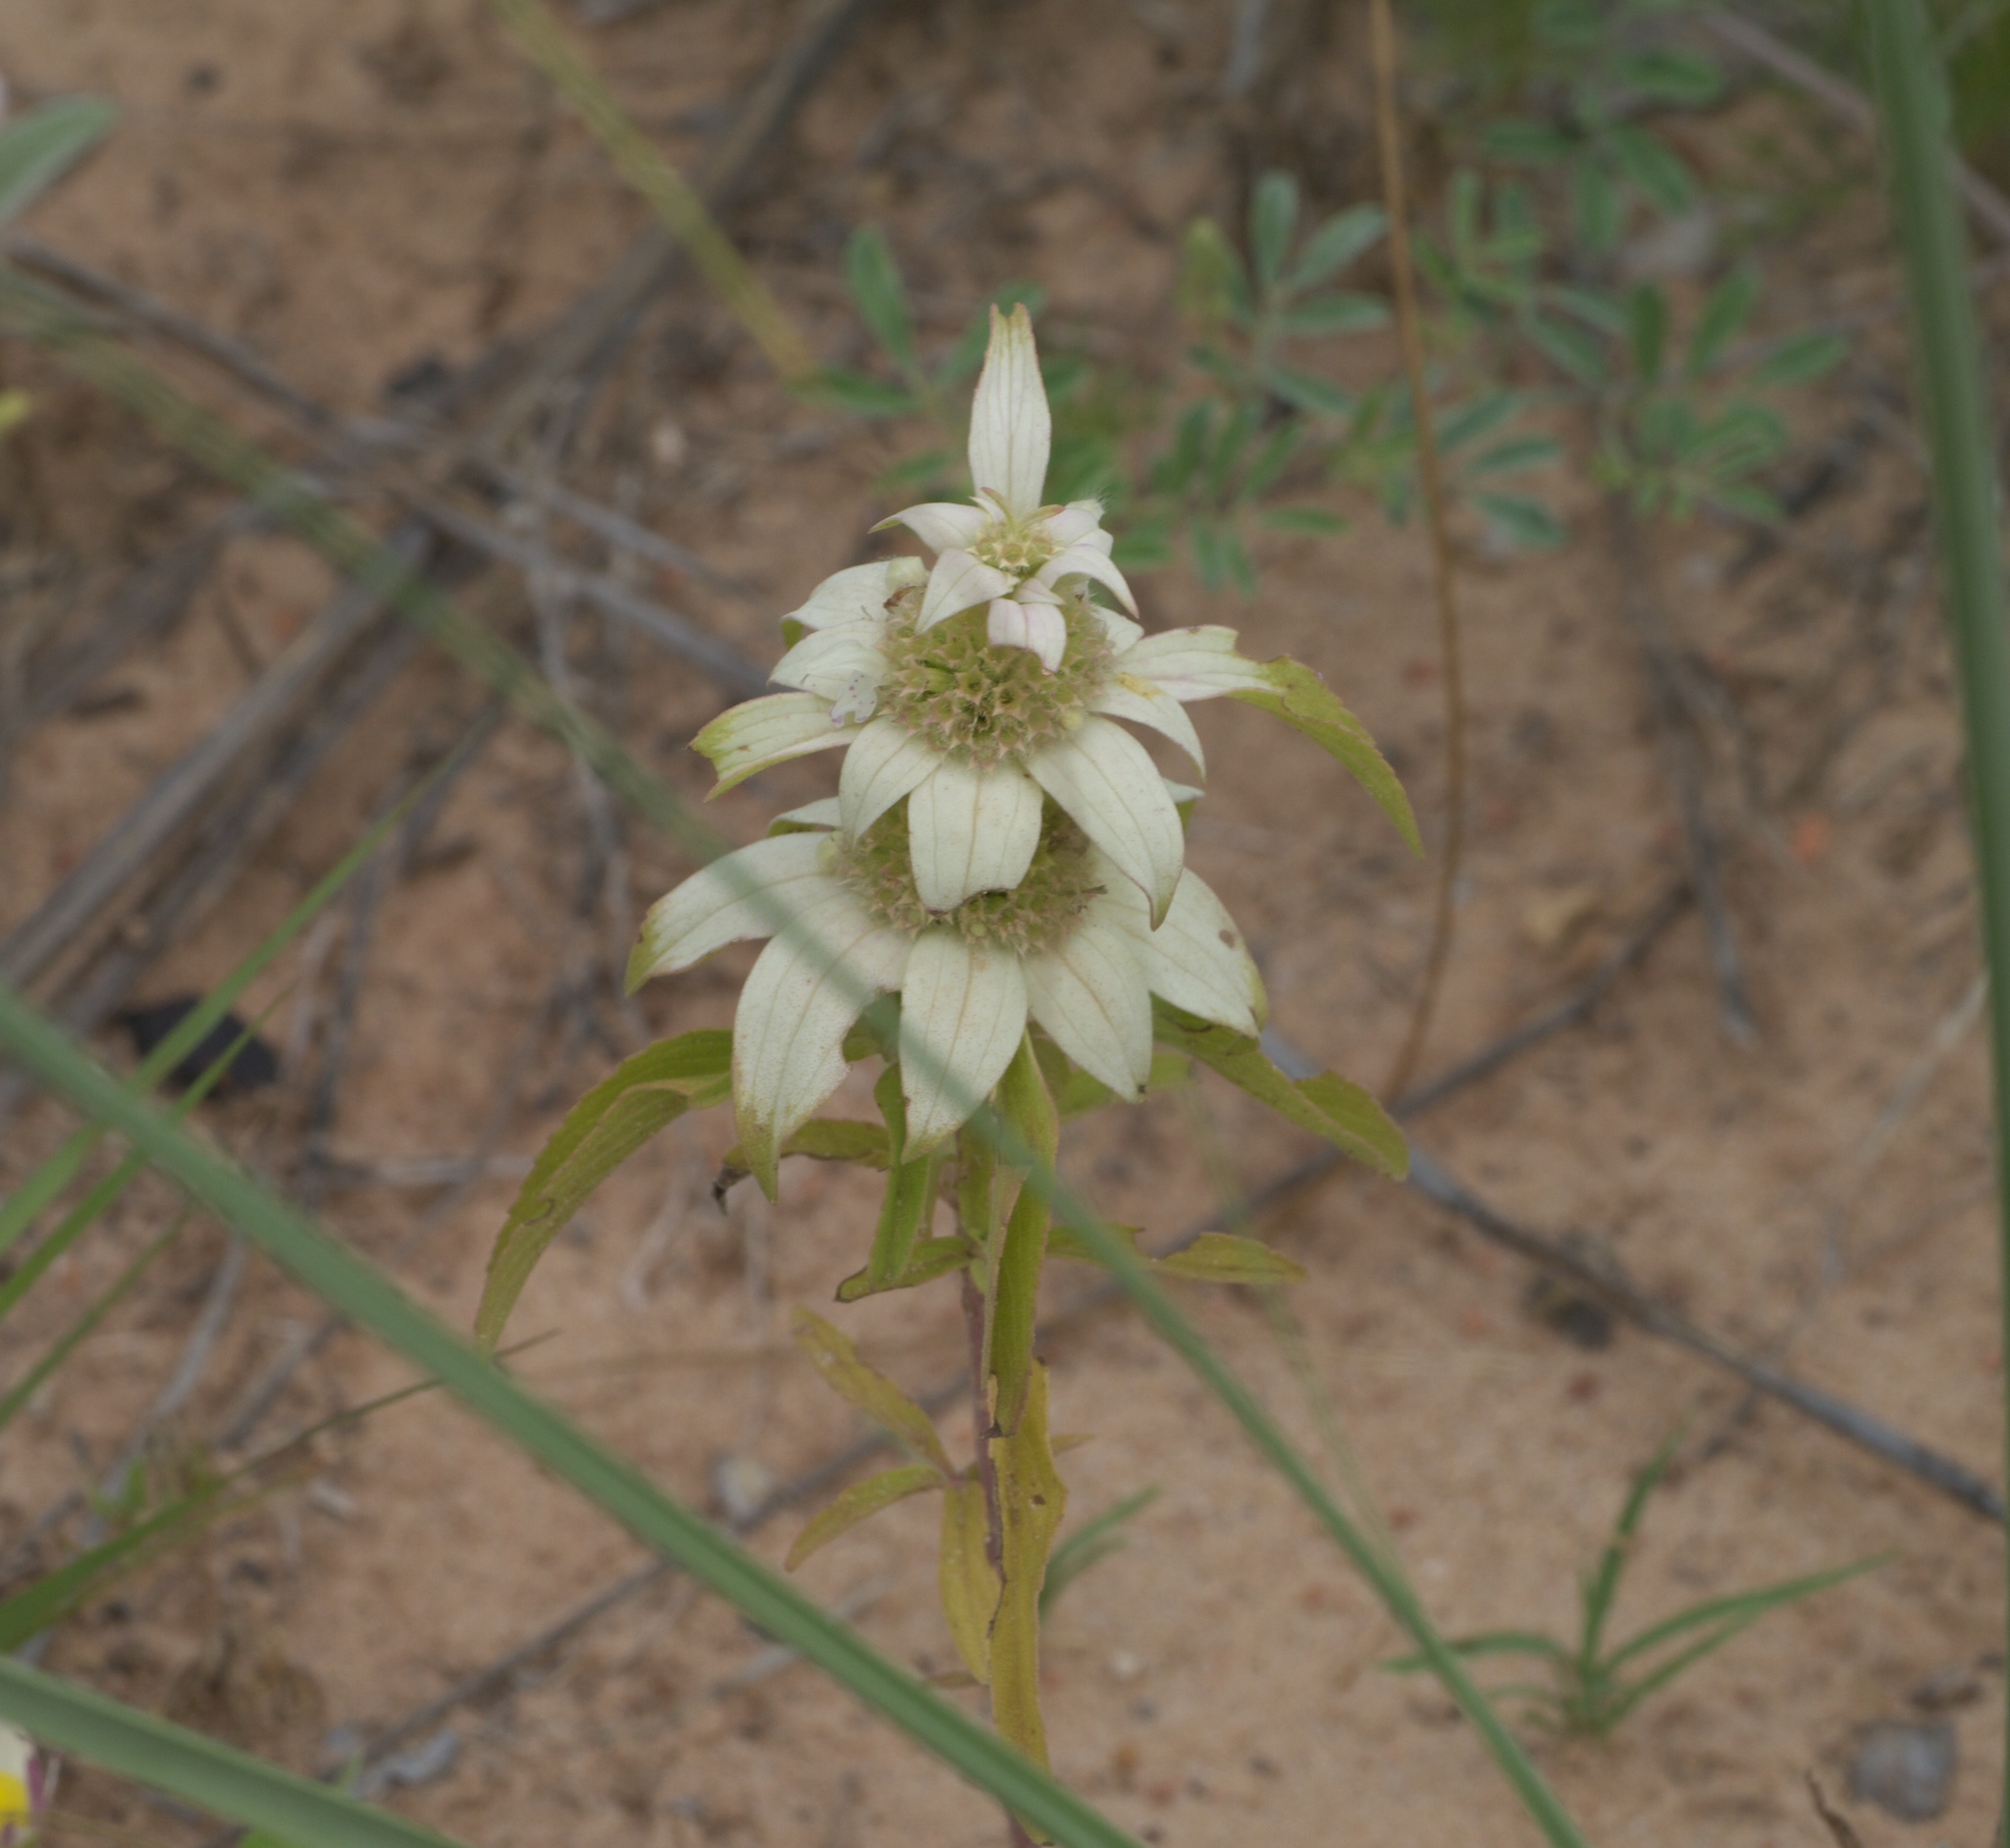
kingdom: Plantae
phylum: Tracheophyta
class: Magnoliopsida
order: Lamiales
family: Lamiaceae
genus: Monarda
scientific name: Monarda punctata
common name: Dotted monarda
